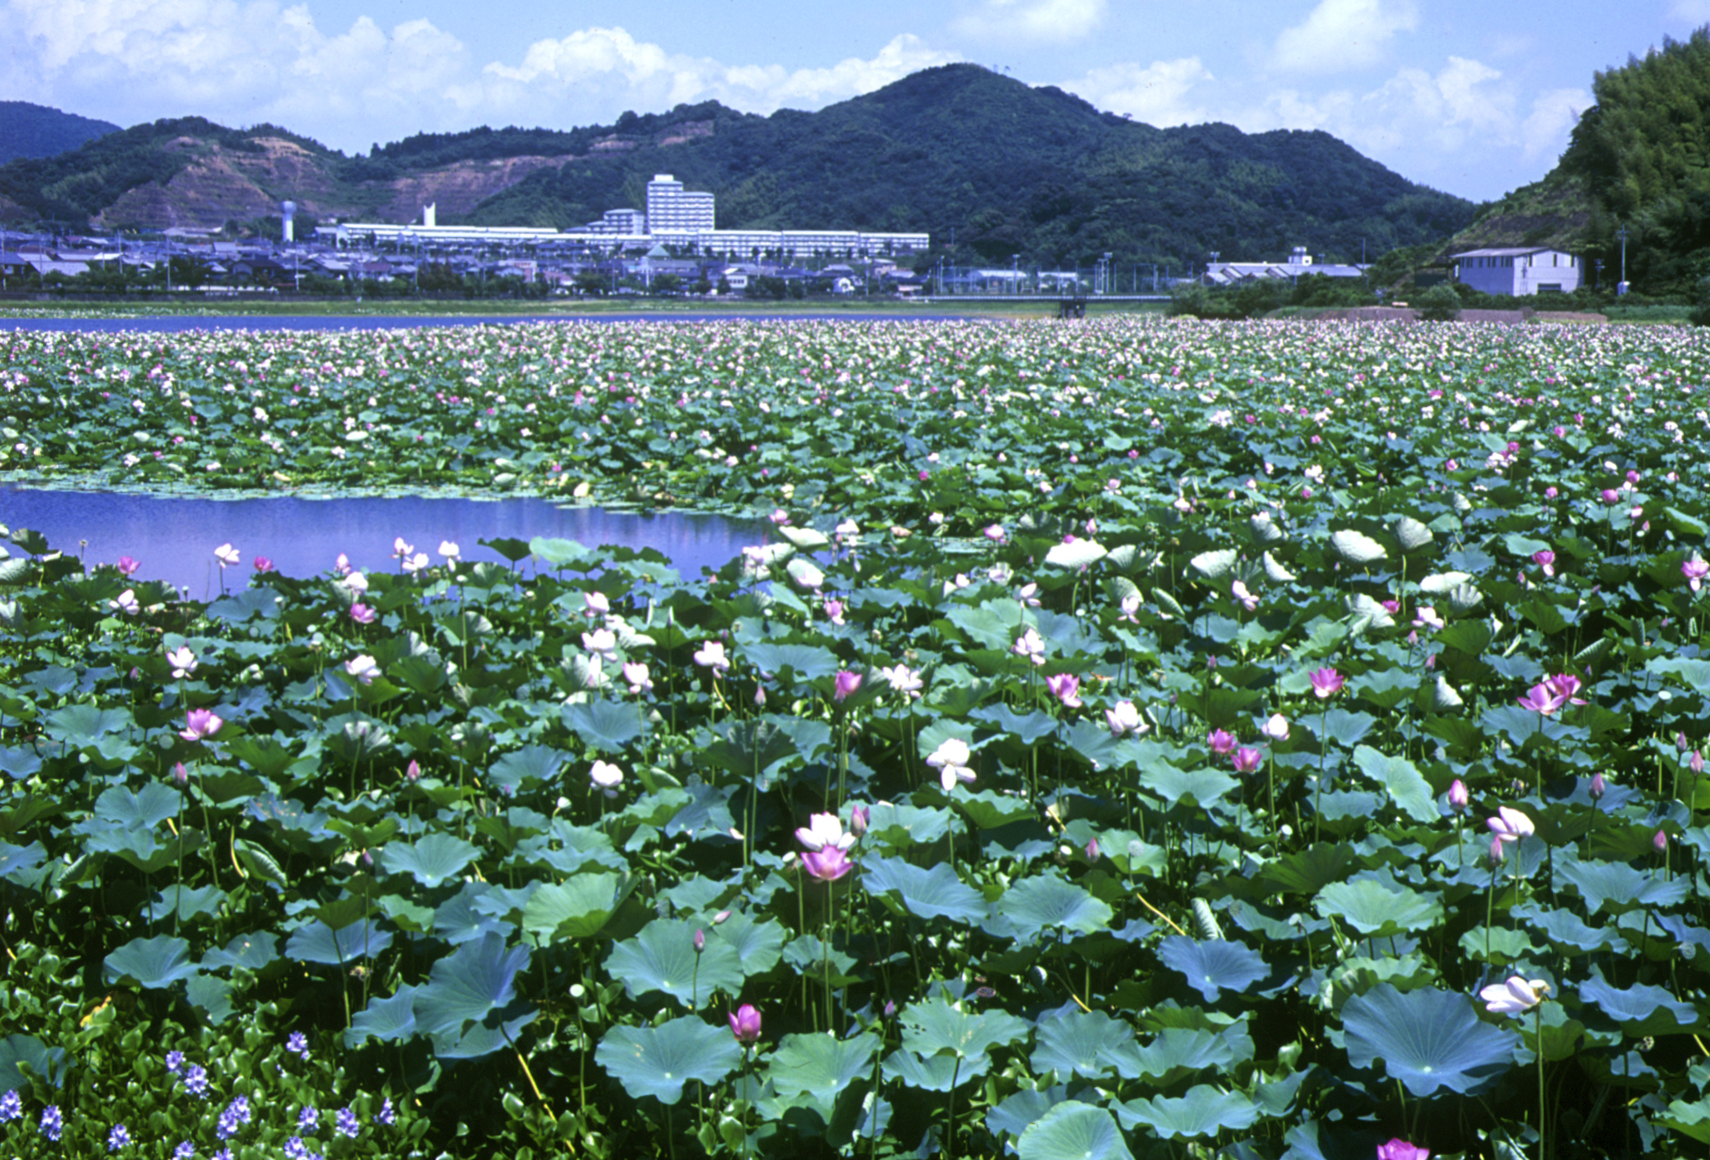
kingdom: Plantae
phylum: Tracheophyta
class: Magnoliopsida
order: Proteales
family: Nelumbonaceae
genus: Nelumbo
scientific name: Nelumbo nucifera
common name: Sacred lotus
